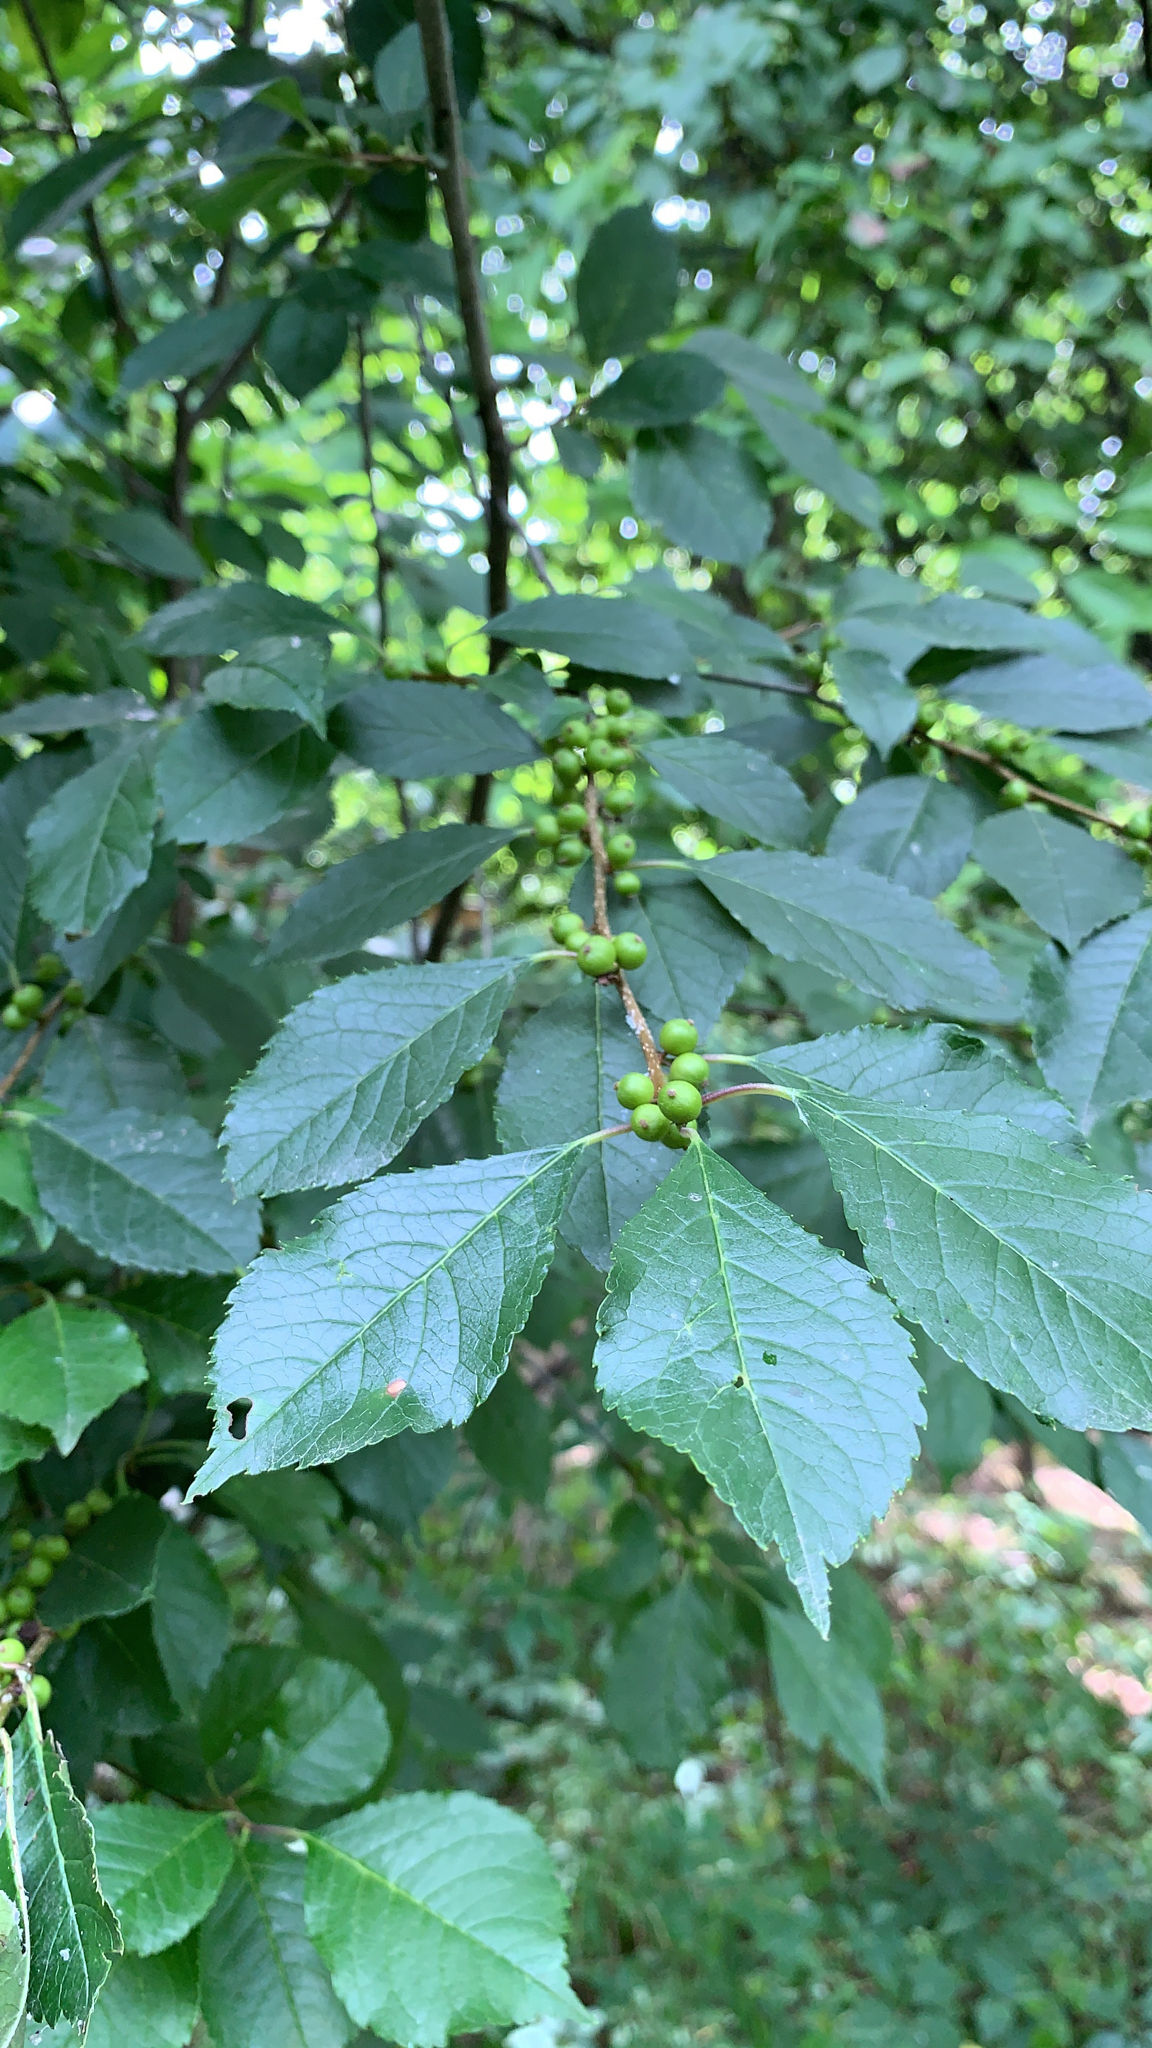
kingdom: Plantae
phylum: Tracheophyta
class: Magnoliopsida
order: Aquifoliales
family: Aquifoliaceae
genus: Ilex
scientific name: Ilex verticillata
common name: Virginia winterberry
